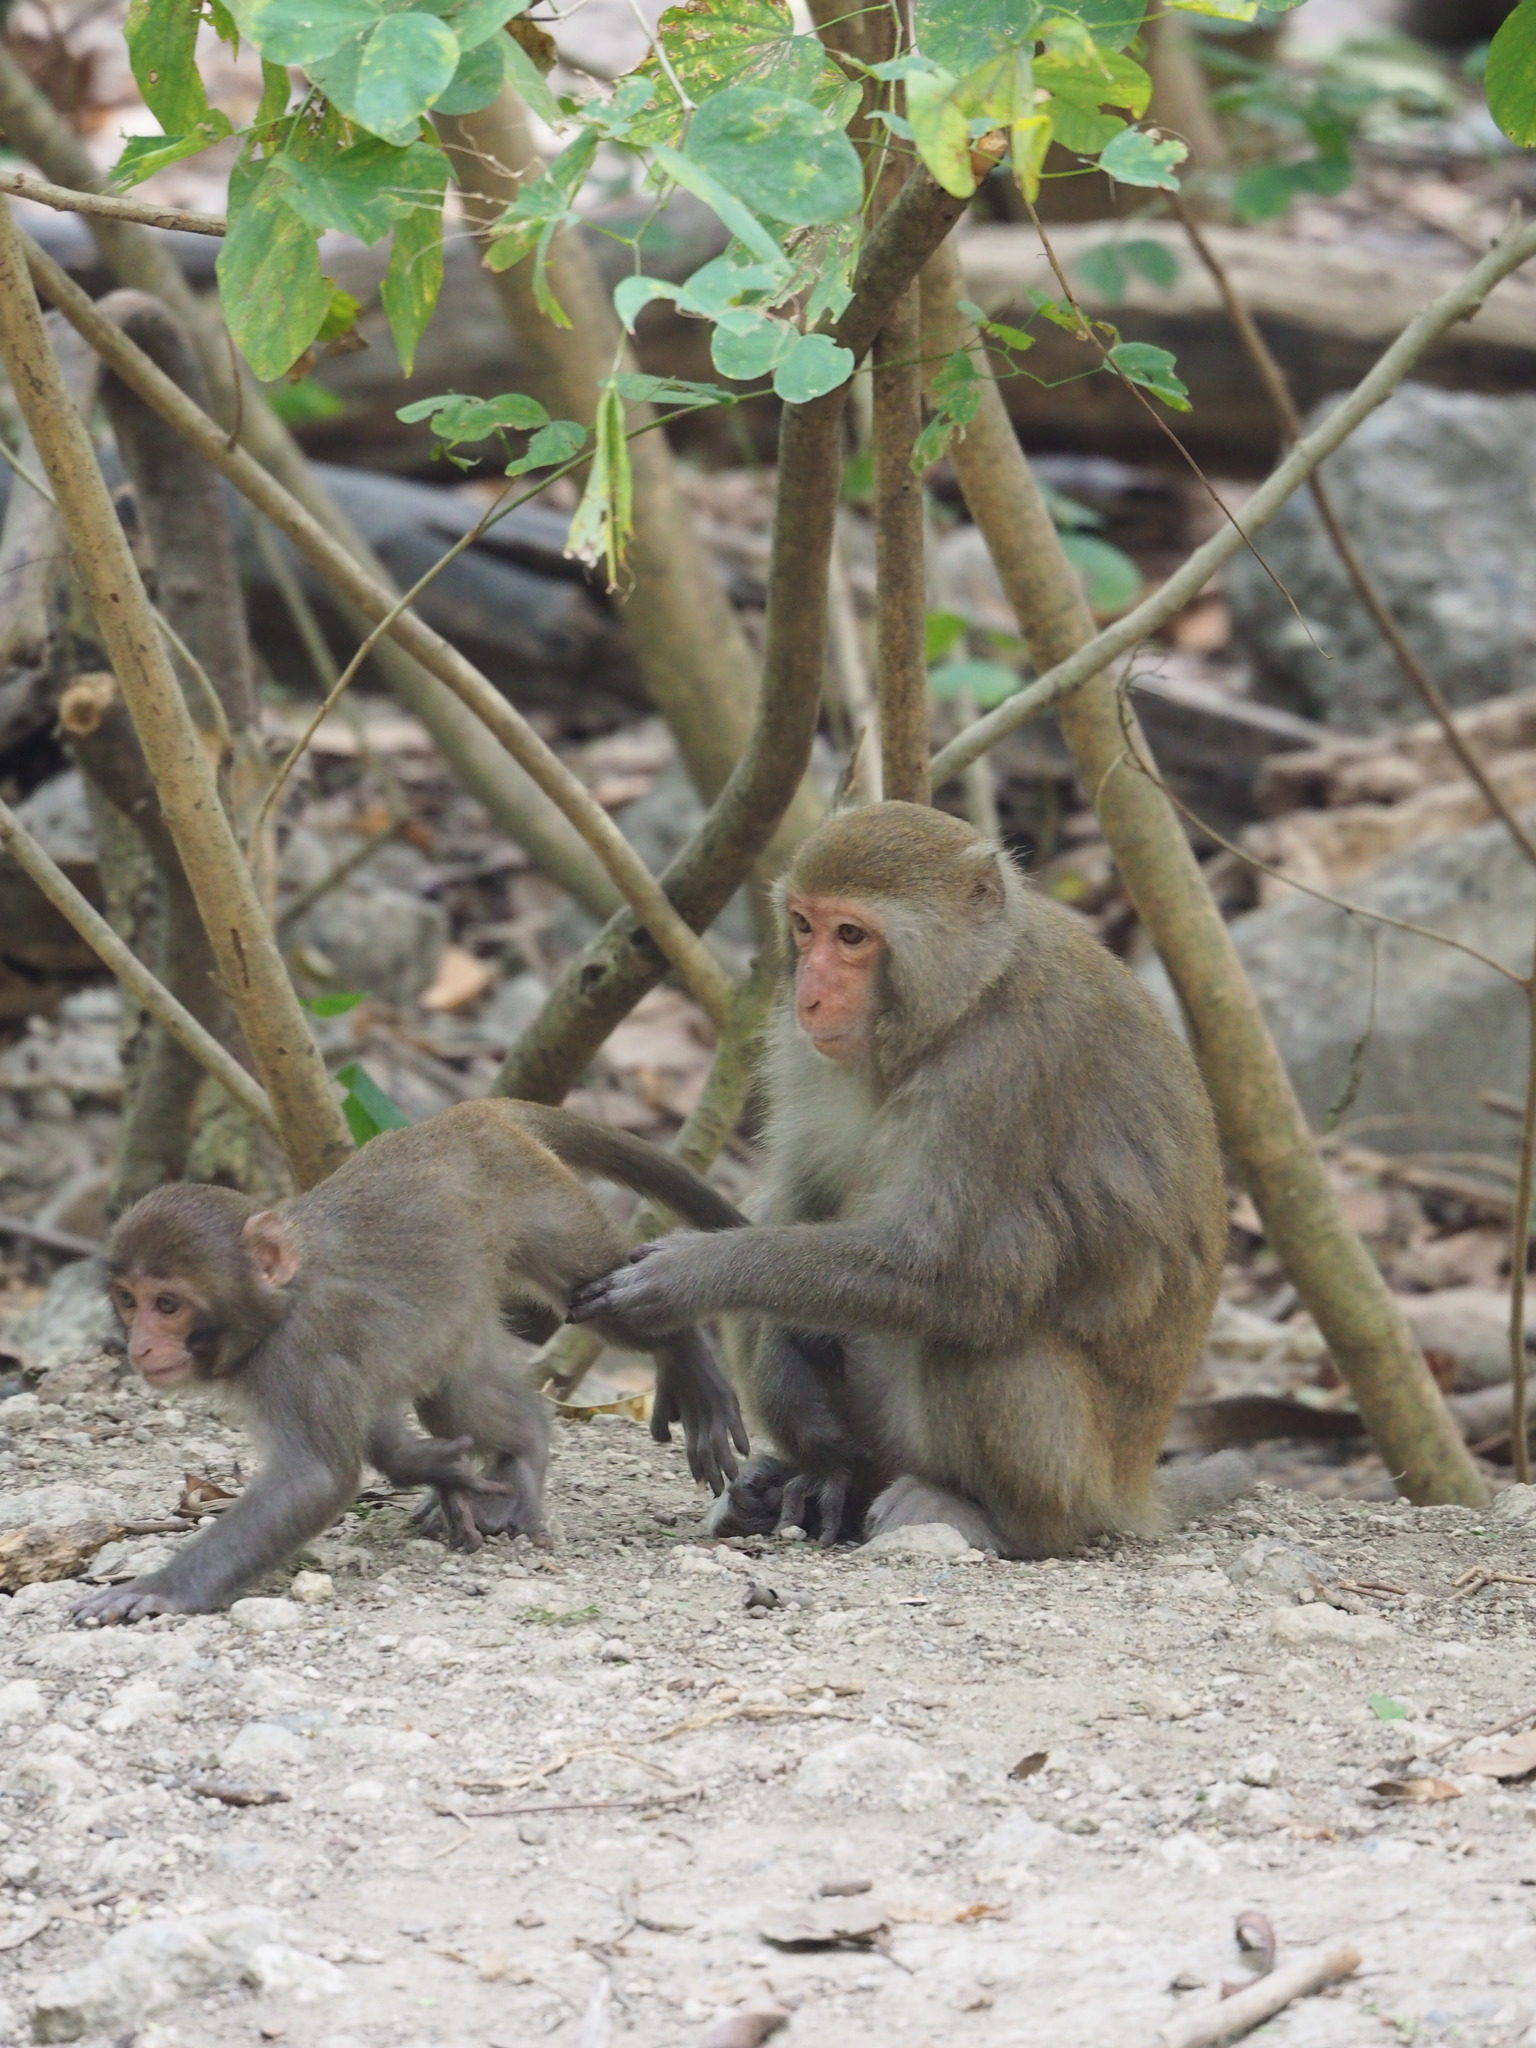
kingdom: Animalia
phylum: Chordata
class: Mammalia
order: Primates
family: Cercopithecidae
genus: Macaca
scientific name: Macaca cyclopis
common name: Formosan rock macaque
